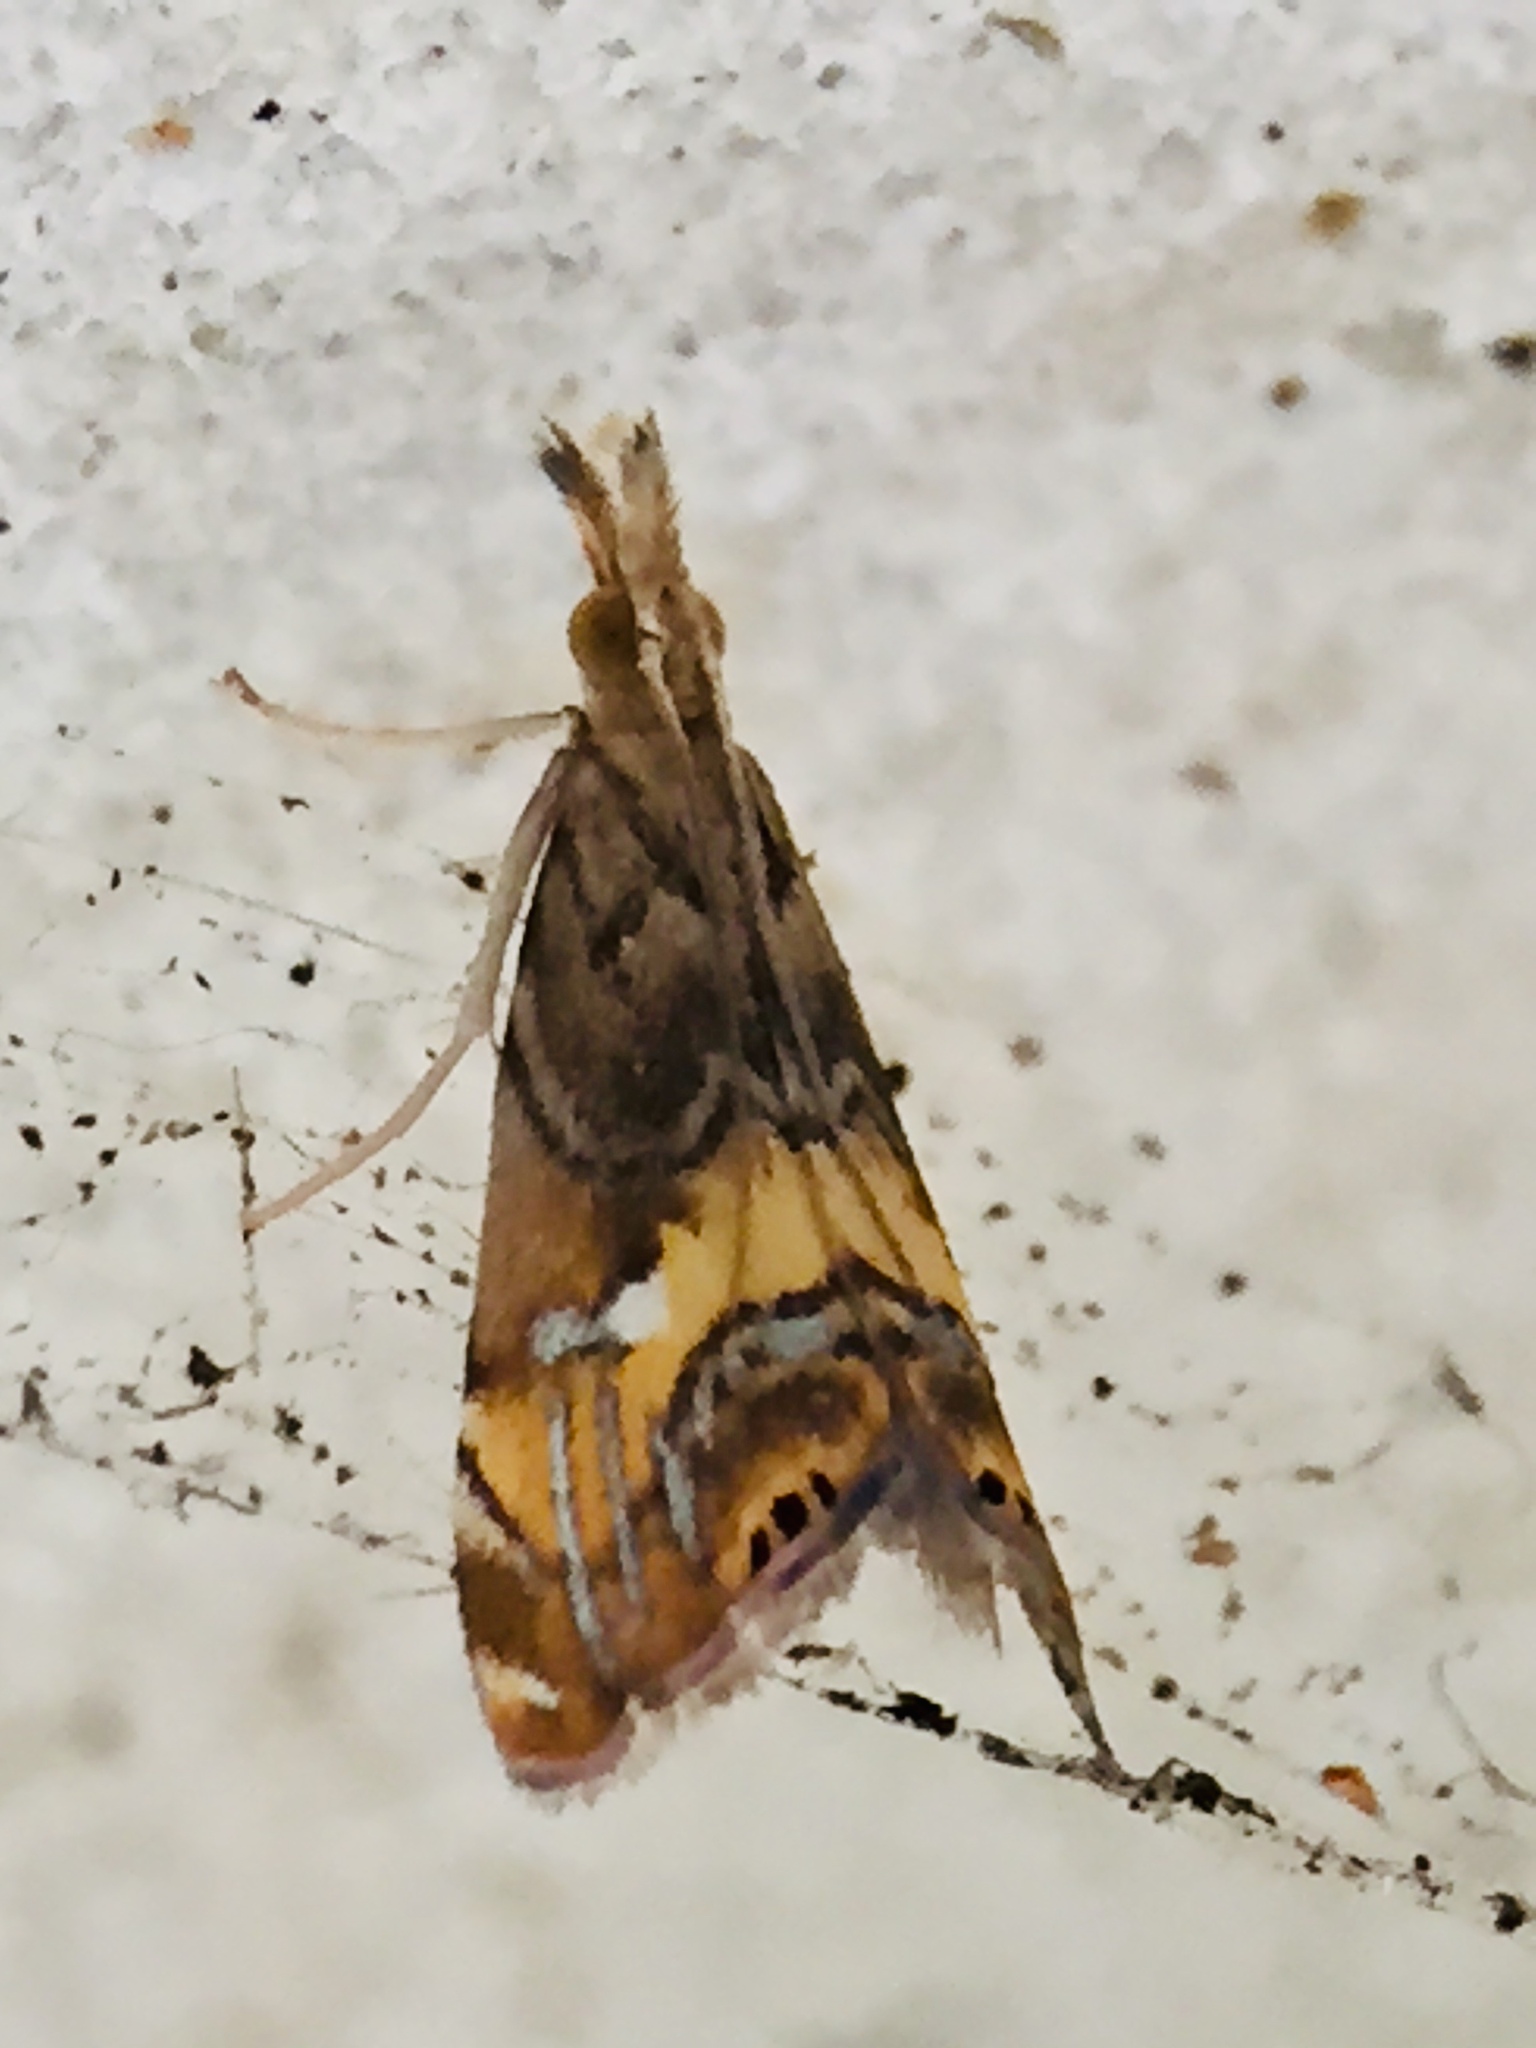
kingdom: Animalia
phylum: Arthropoda
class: Insecta
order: Lepidoptera
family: Crambidae
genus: Glaucocharis
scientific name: Glaucocharis chrysochyta
